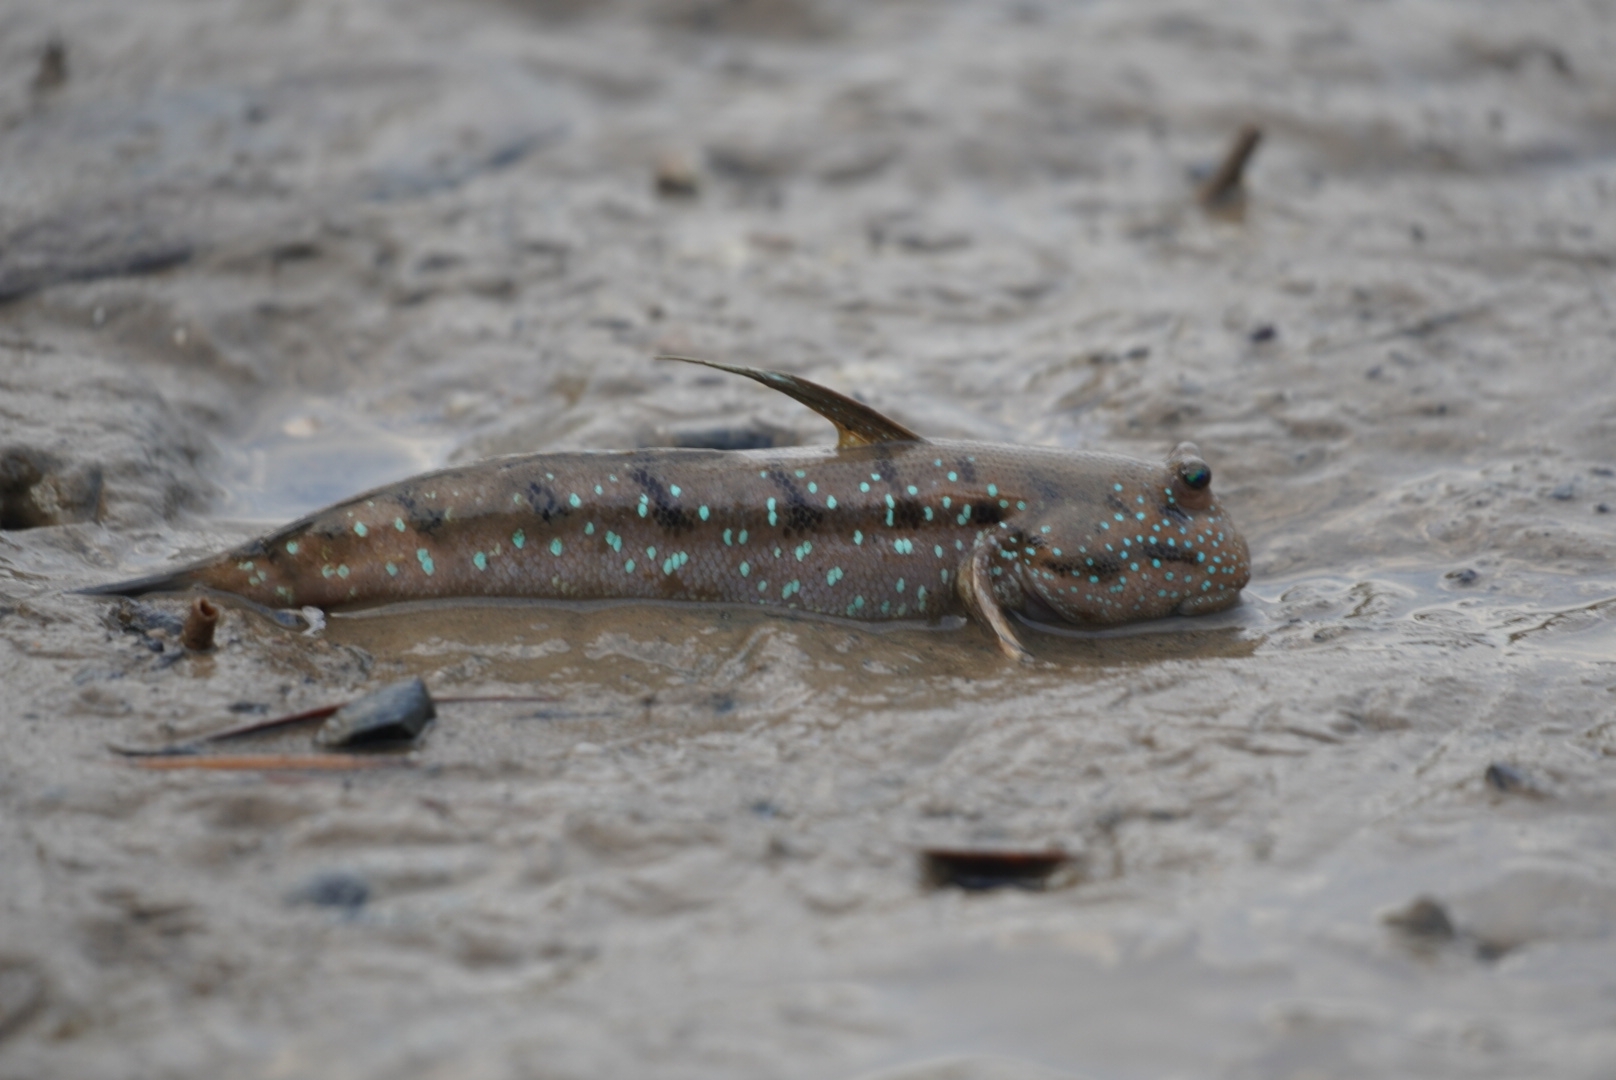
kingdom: Animalia
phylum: Chordata
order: Perciformes
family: Gobiidae
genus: Boleophthalmus
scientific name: Boleophthalmus boddarti
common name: Boddart's goggle-eyed goby
